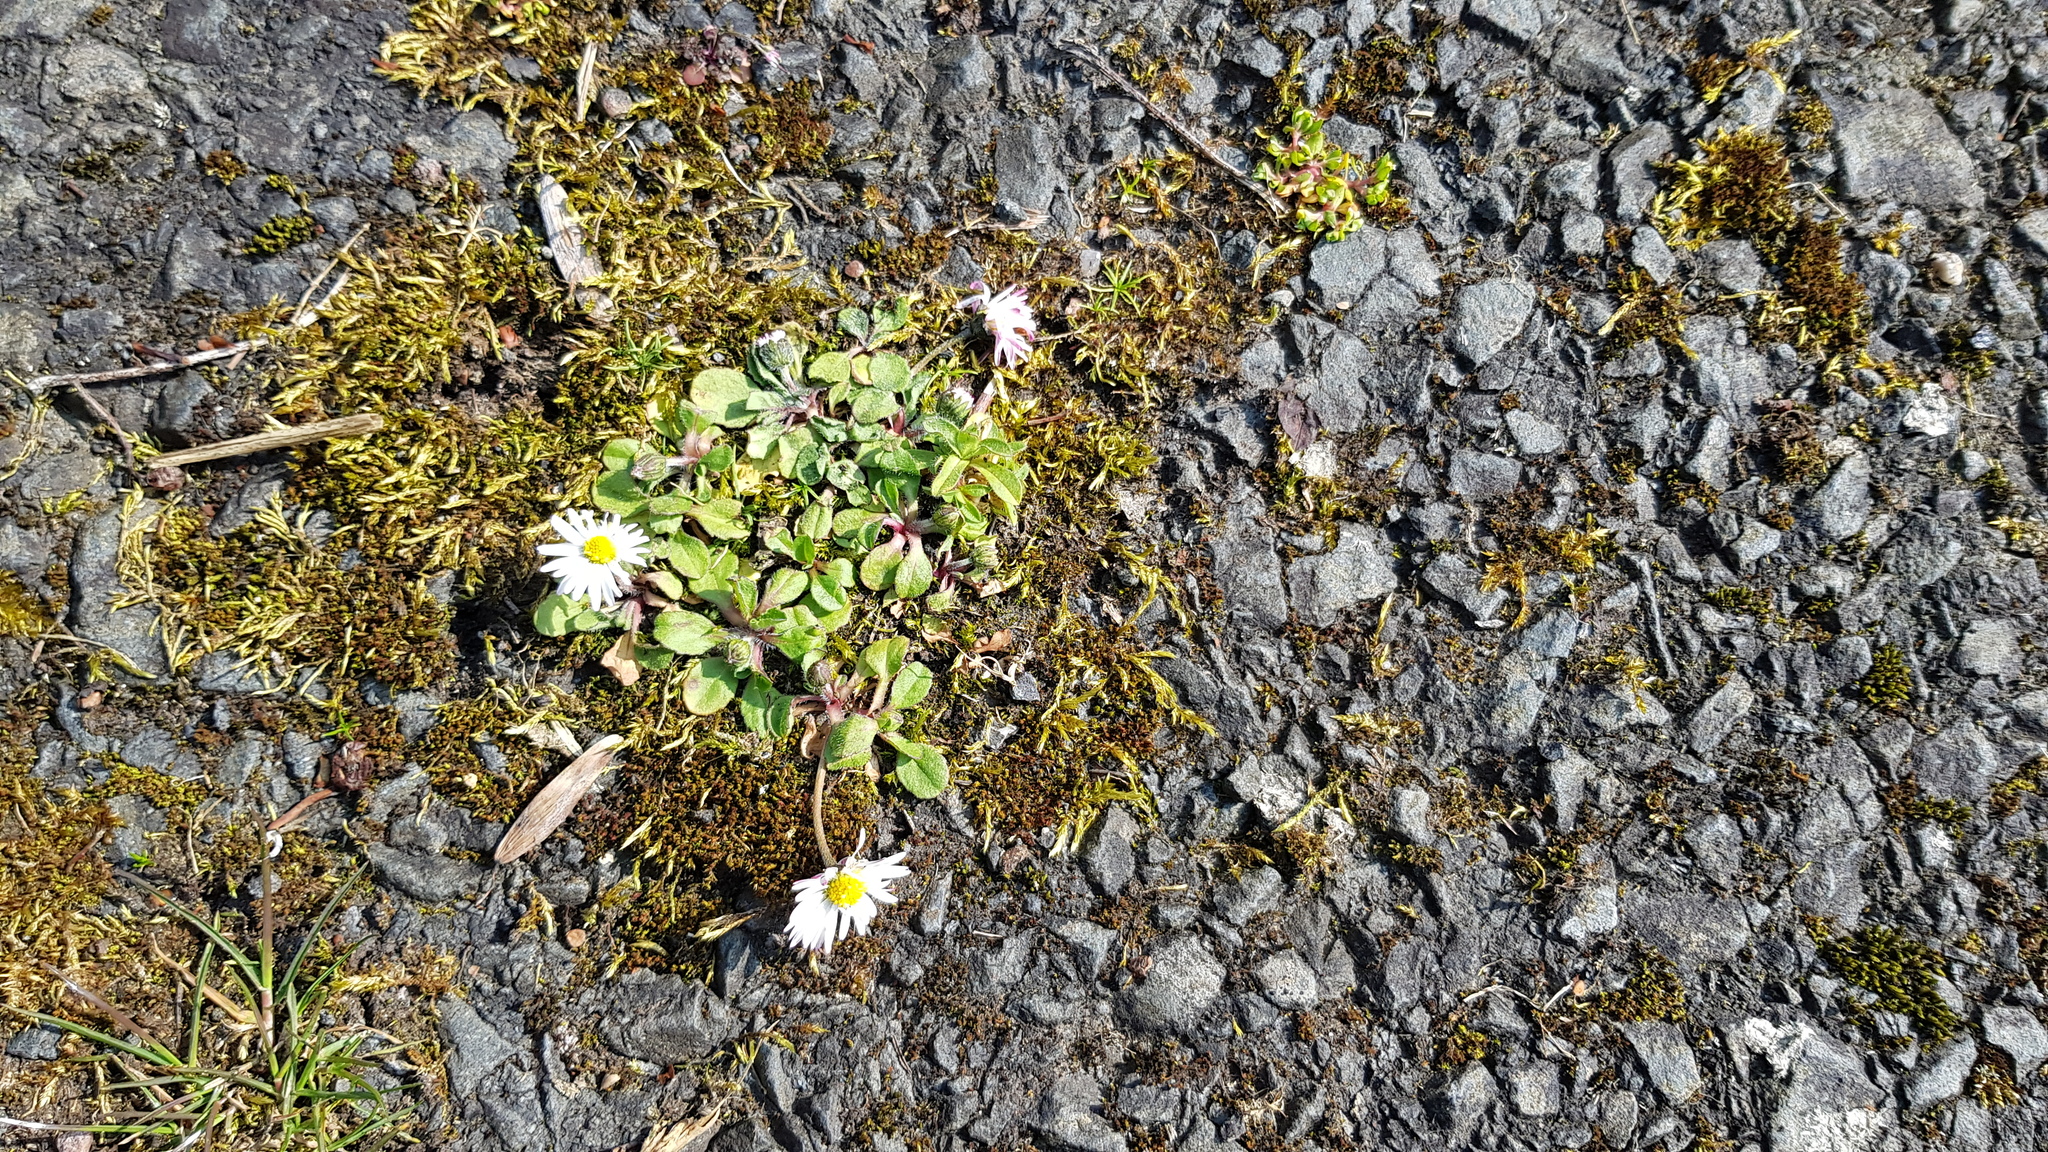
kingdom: Plantae
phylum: Tracheophyta
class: Magnoliopsida
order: Asterales
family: Asteraceae
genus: Bellis
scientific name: Bellis perennis
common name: Lawndaisy
